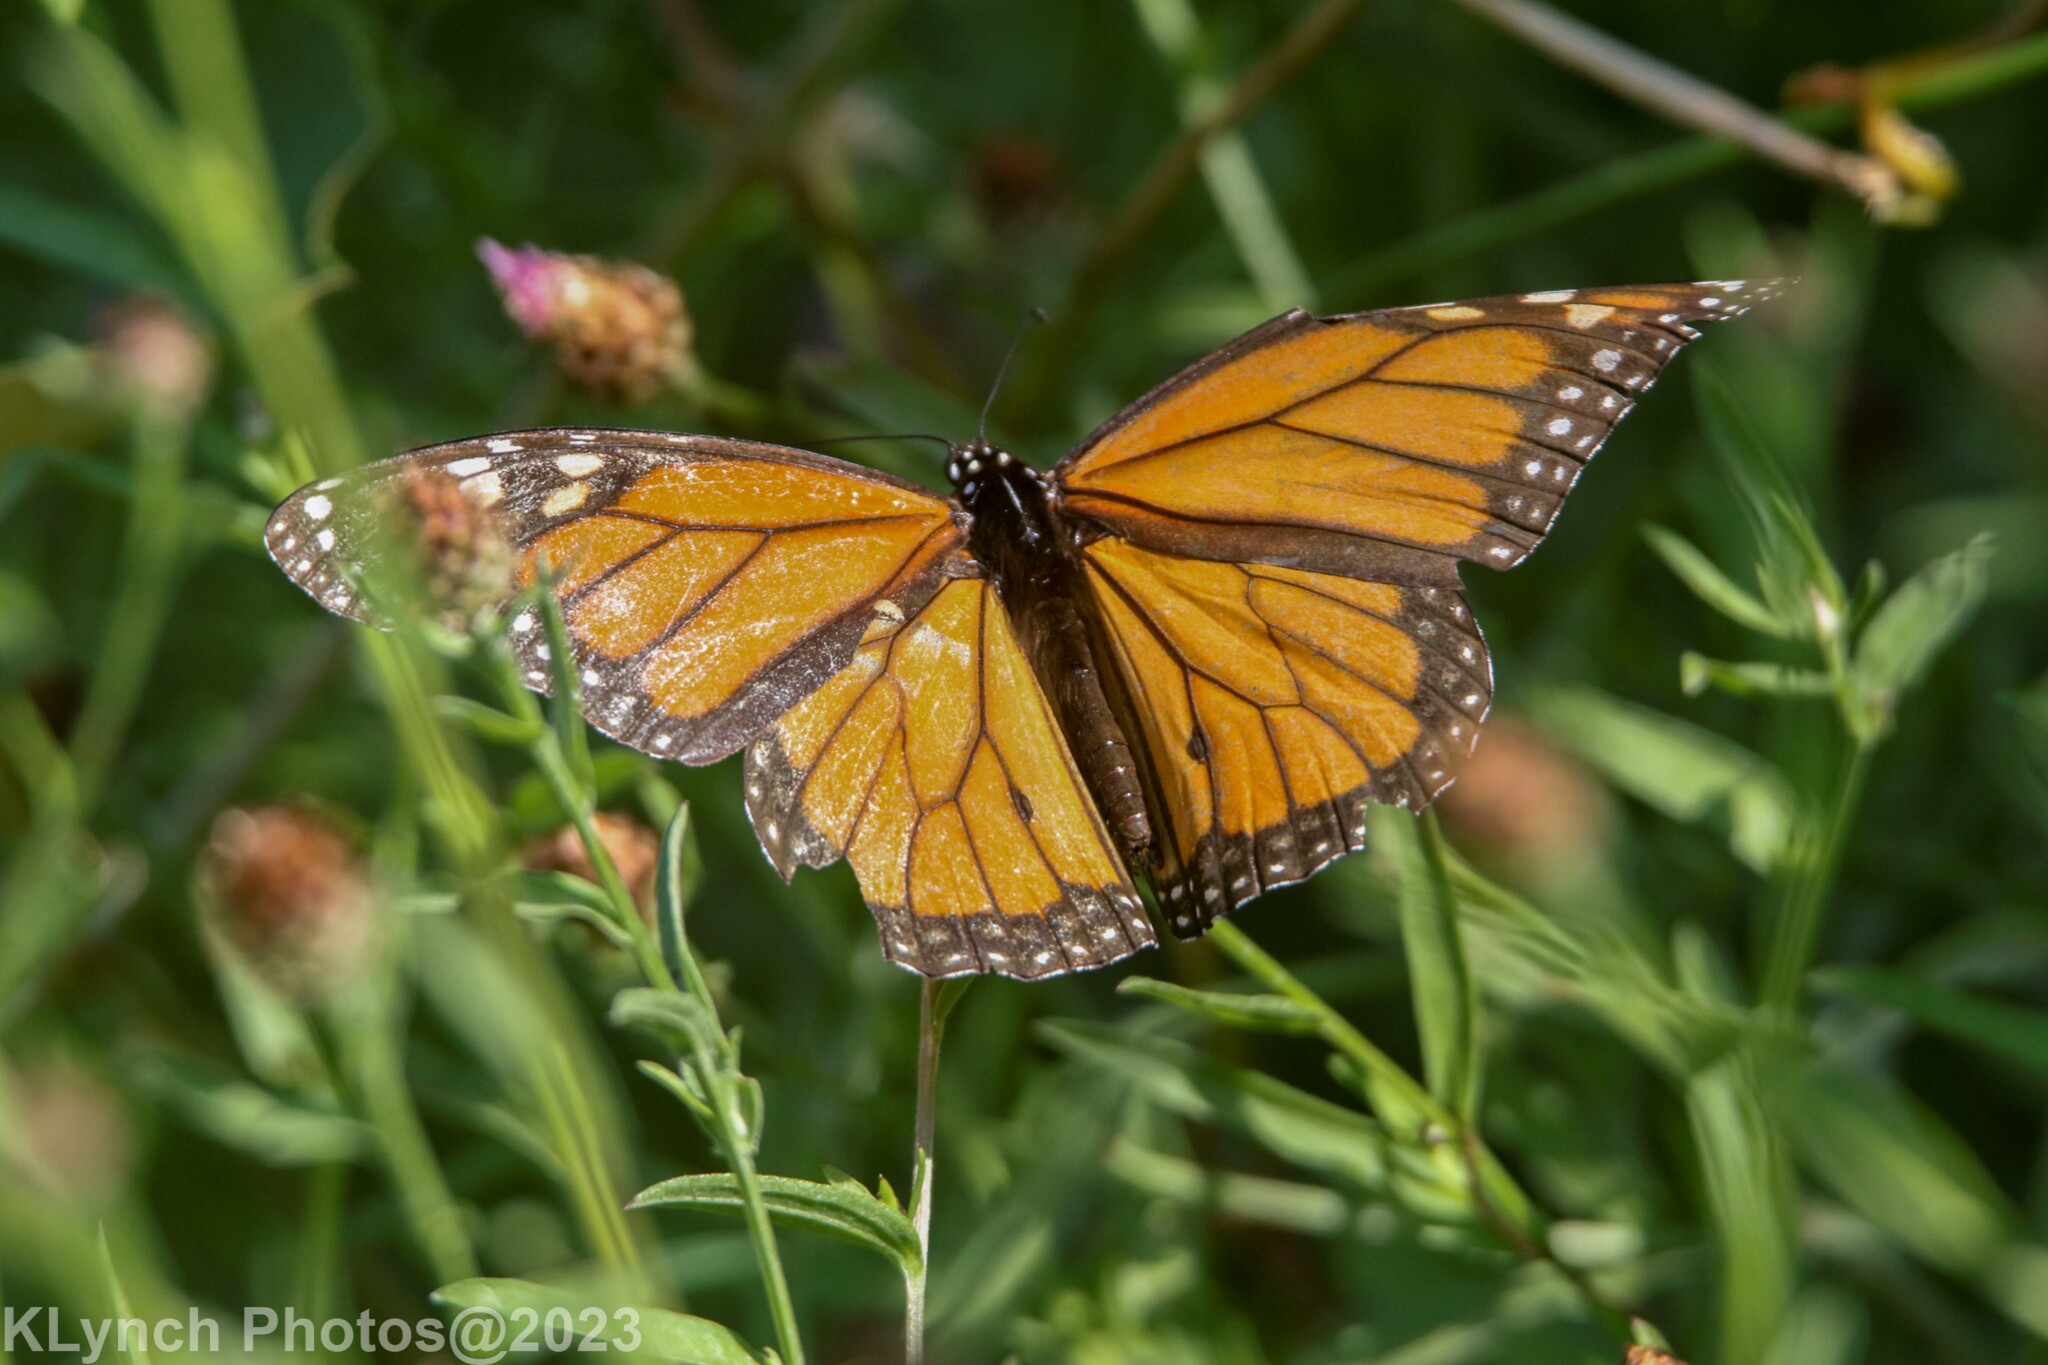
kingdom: Animalia
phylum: Arthropoda
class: Insecta
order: Lepidoptera
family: Nymphalidae
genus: Danaus
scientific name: Danaus plexippus
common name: Monarch
